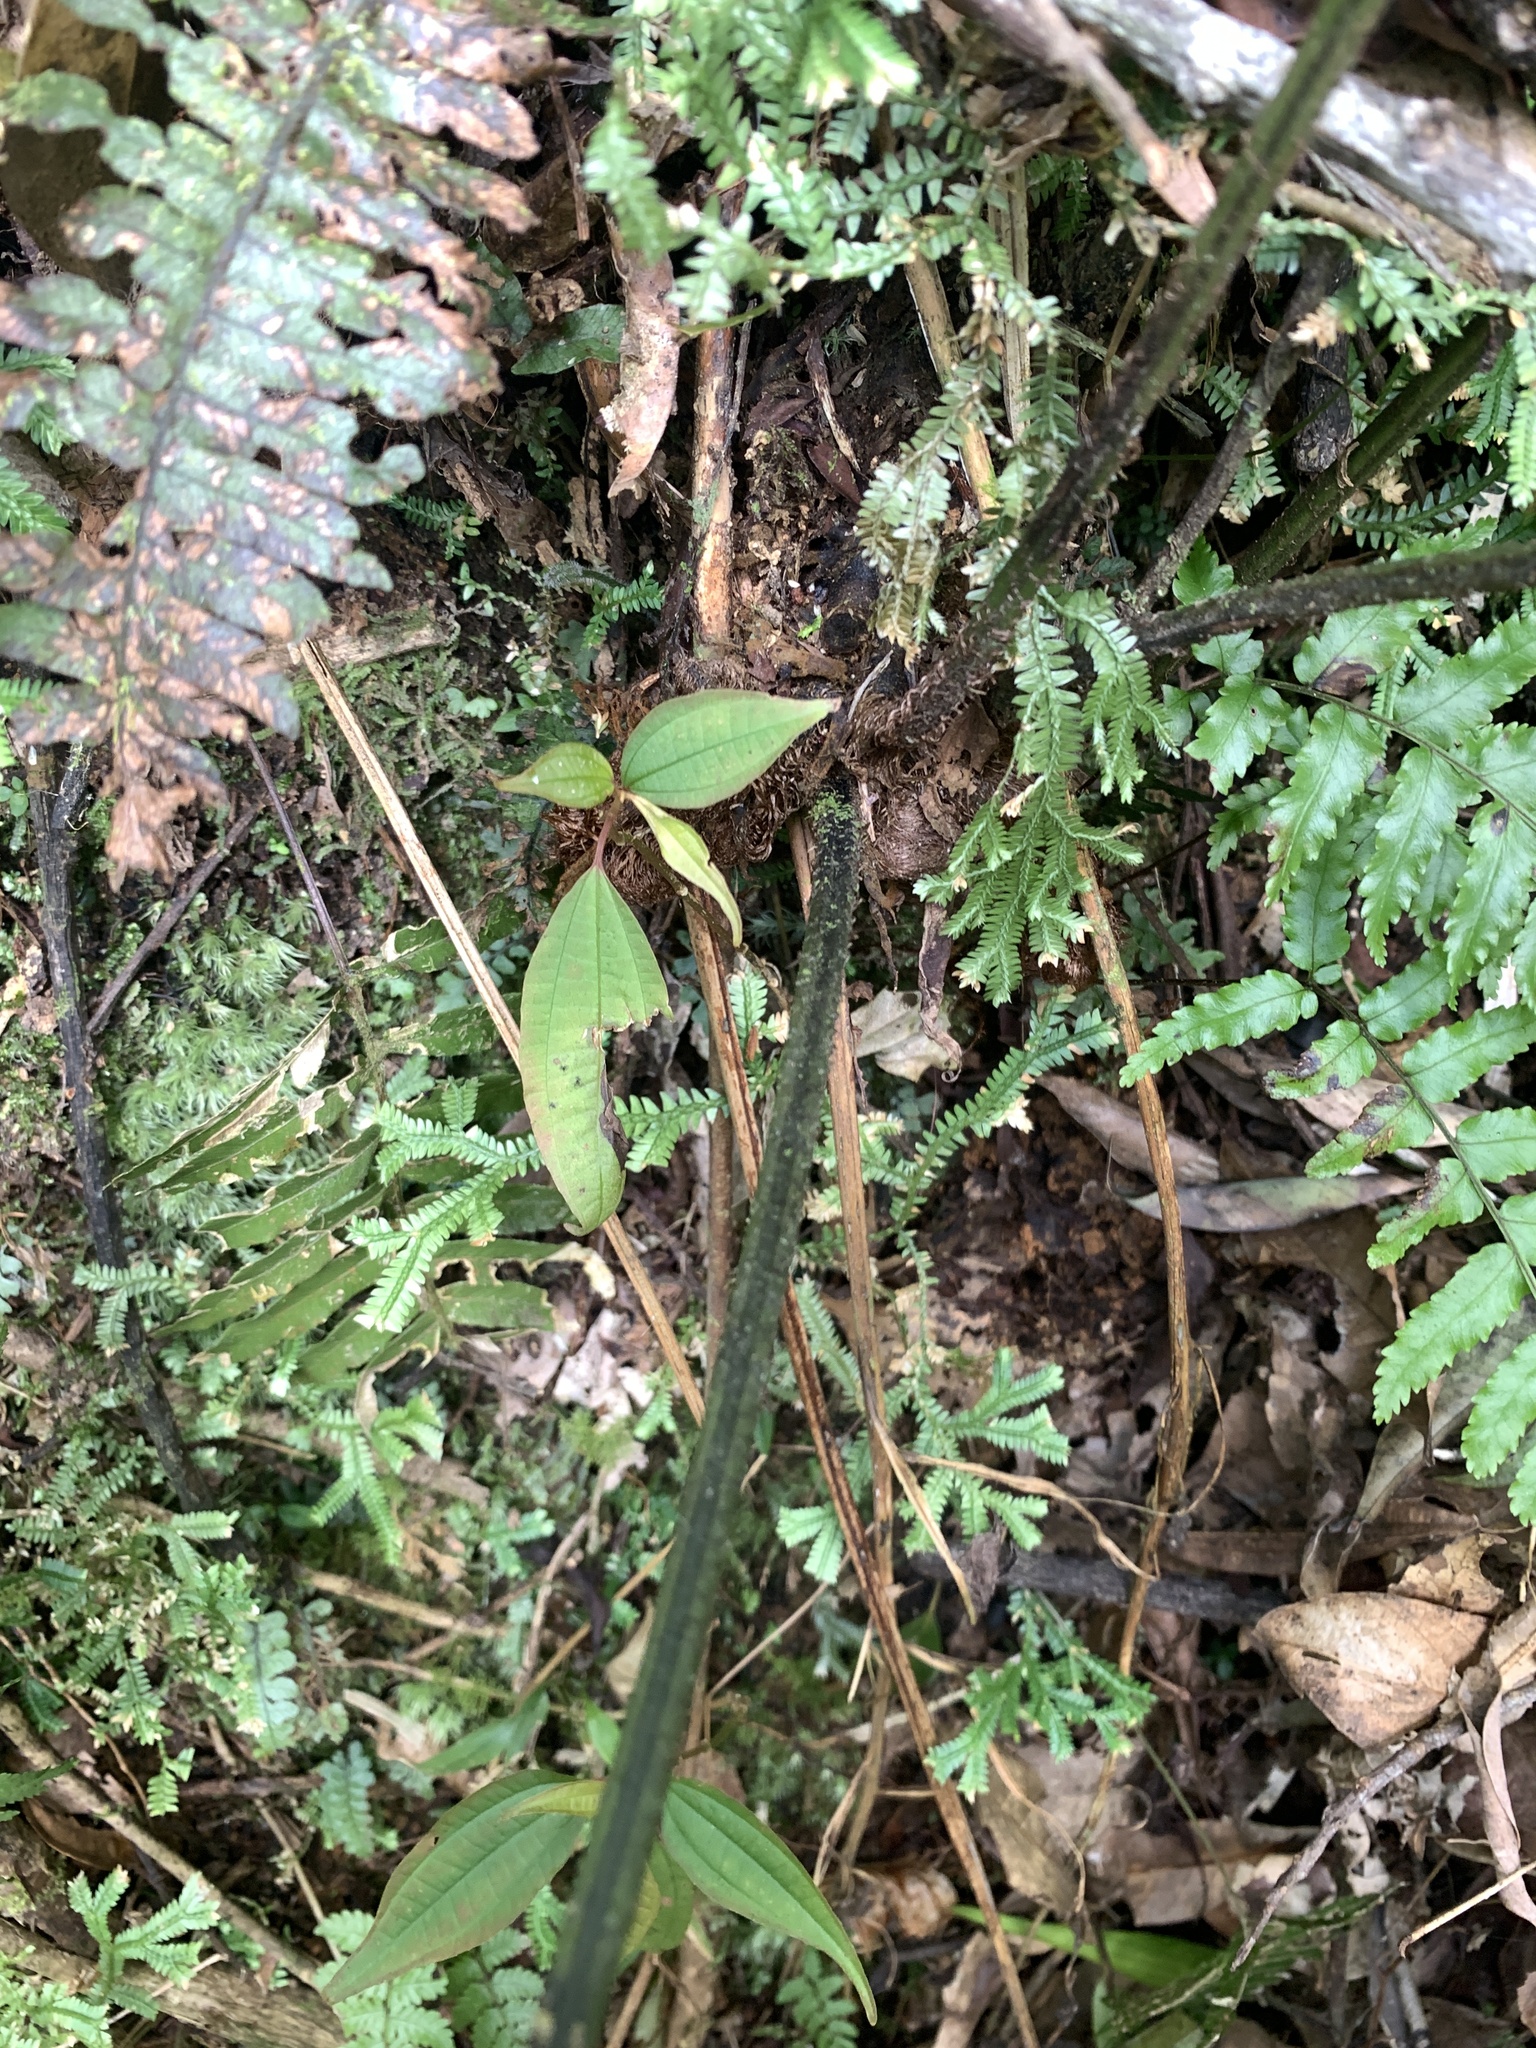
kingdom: Plantae
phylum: Tracheophyta
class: Polypodiopsida
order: Polypodiales
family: Athyriaceae
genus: Diplazium
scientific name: Diplazium dilatatum
